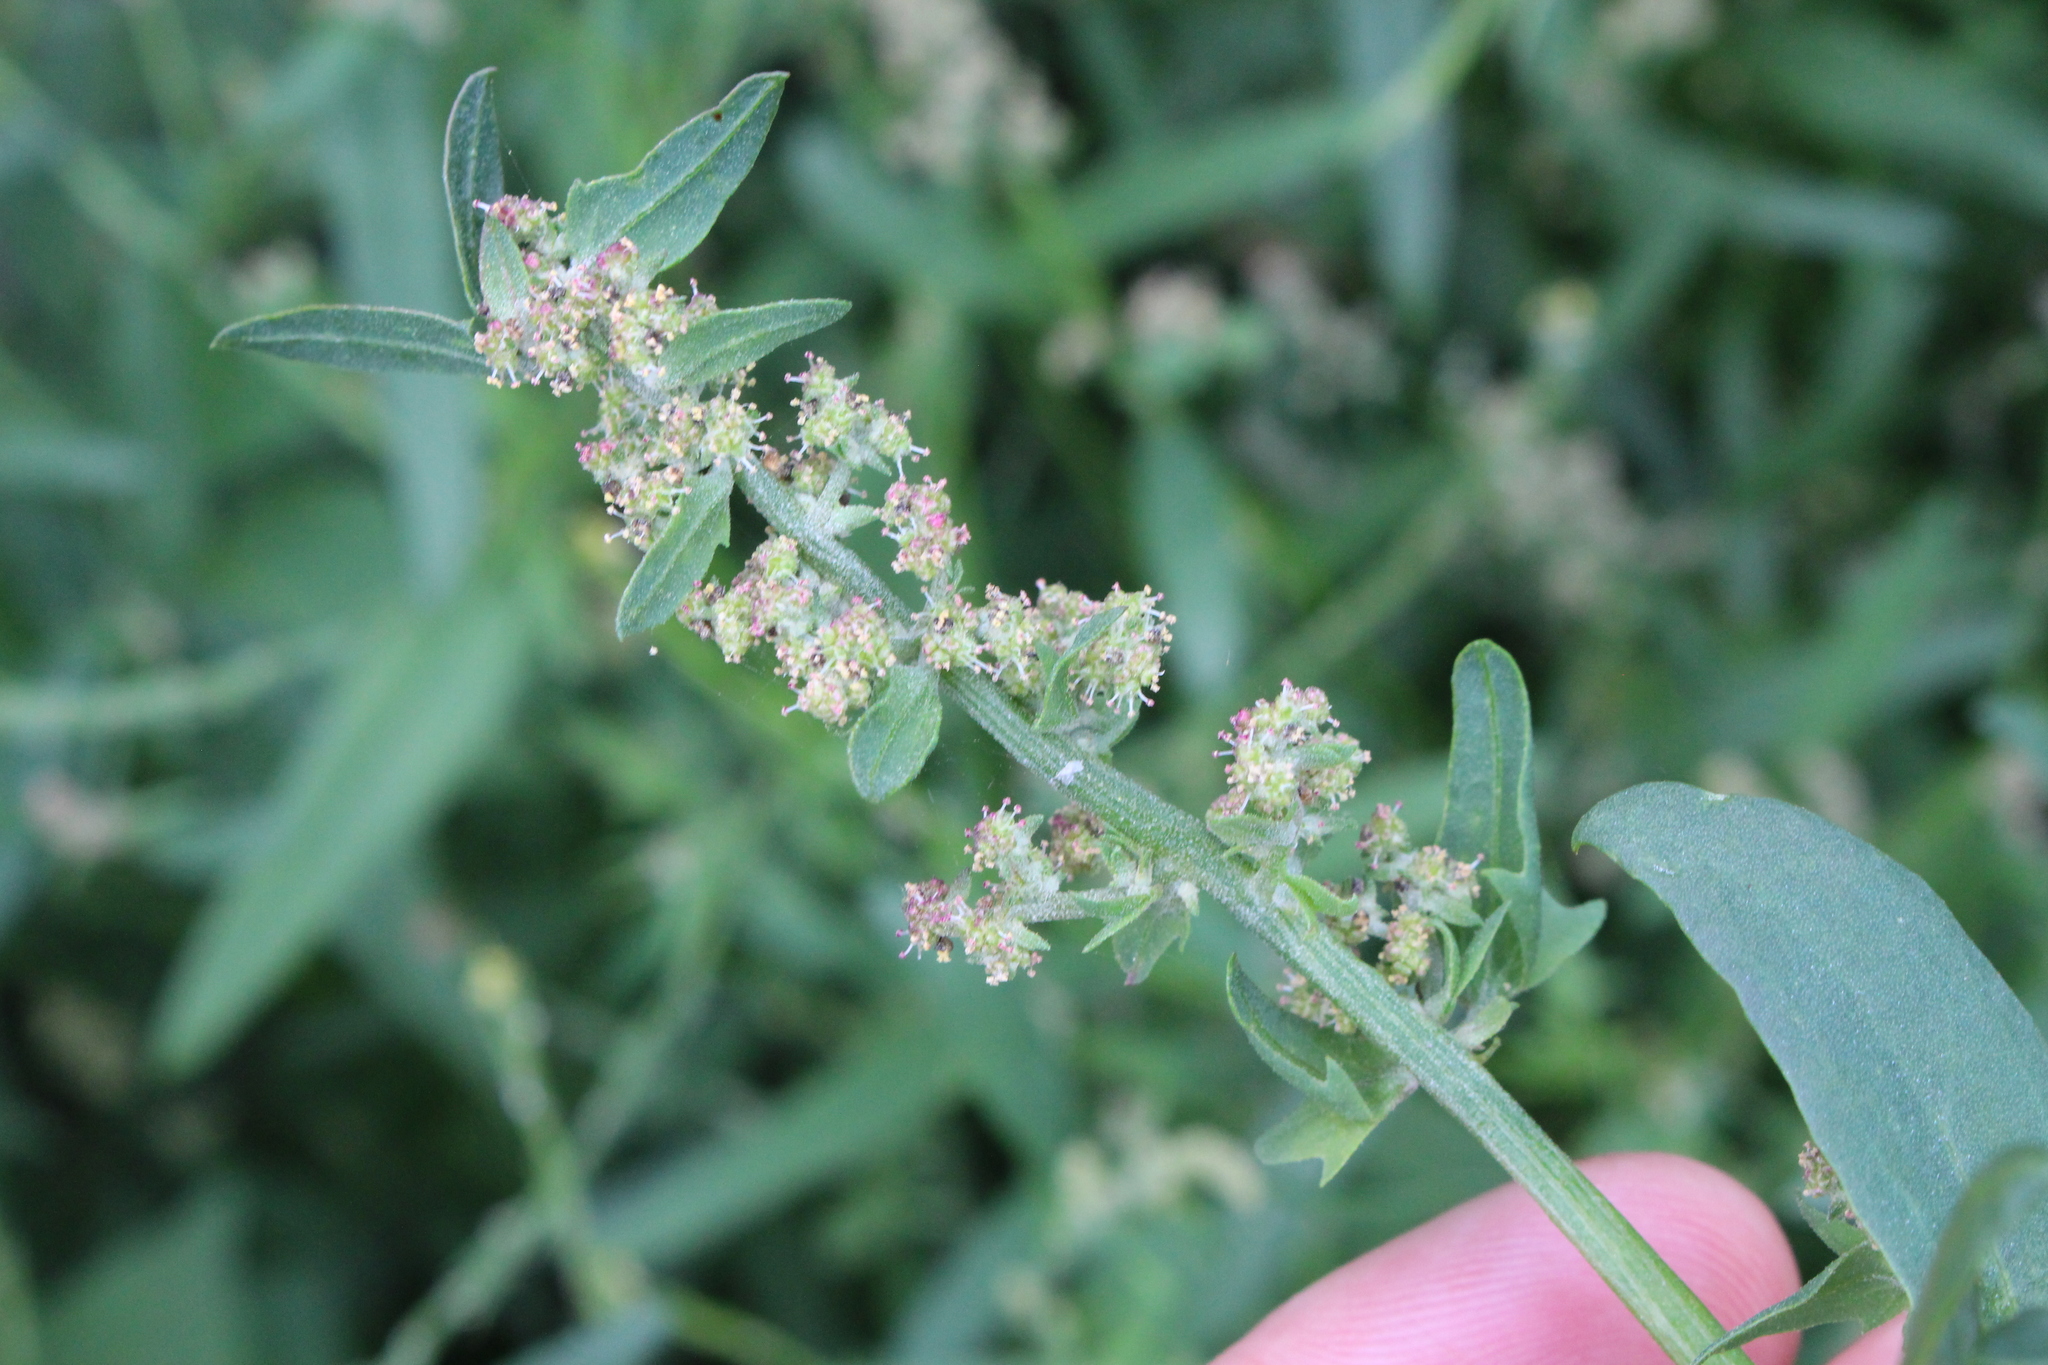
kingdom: Plantae
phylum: Tracheophyta
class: Magnoliopsida
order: Caryophyllales
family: Amaranthaceae
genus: Atriplex
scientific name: Atriplex prostrata
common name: Spear-leaved orache
